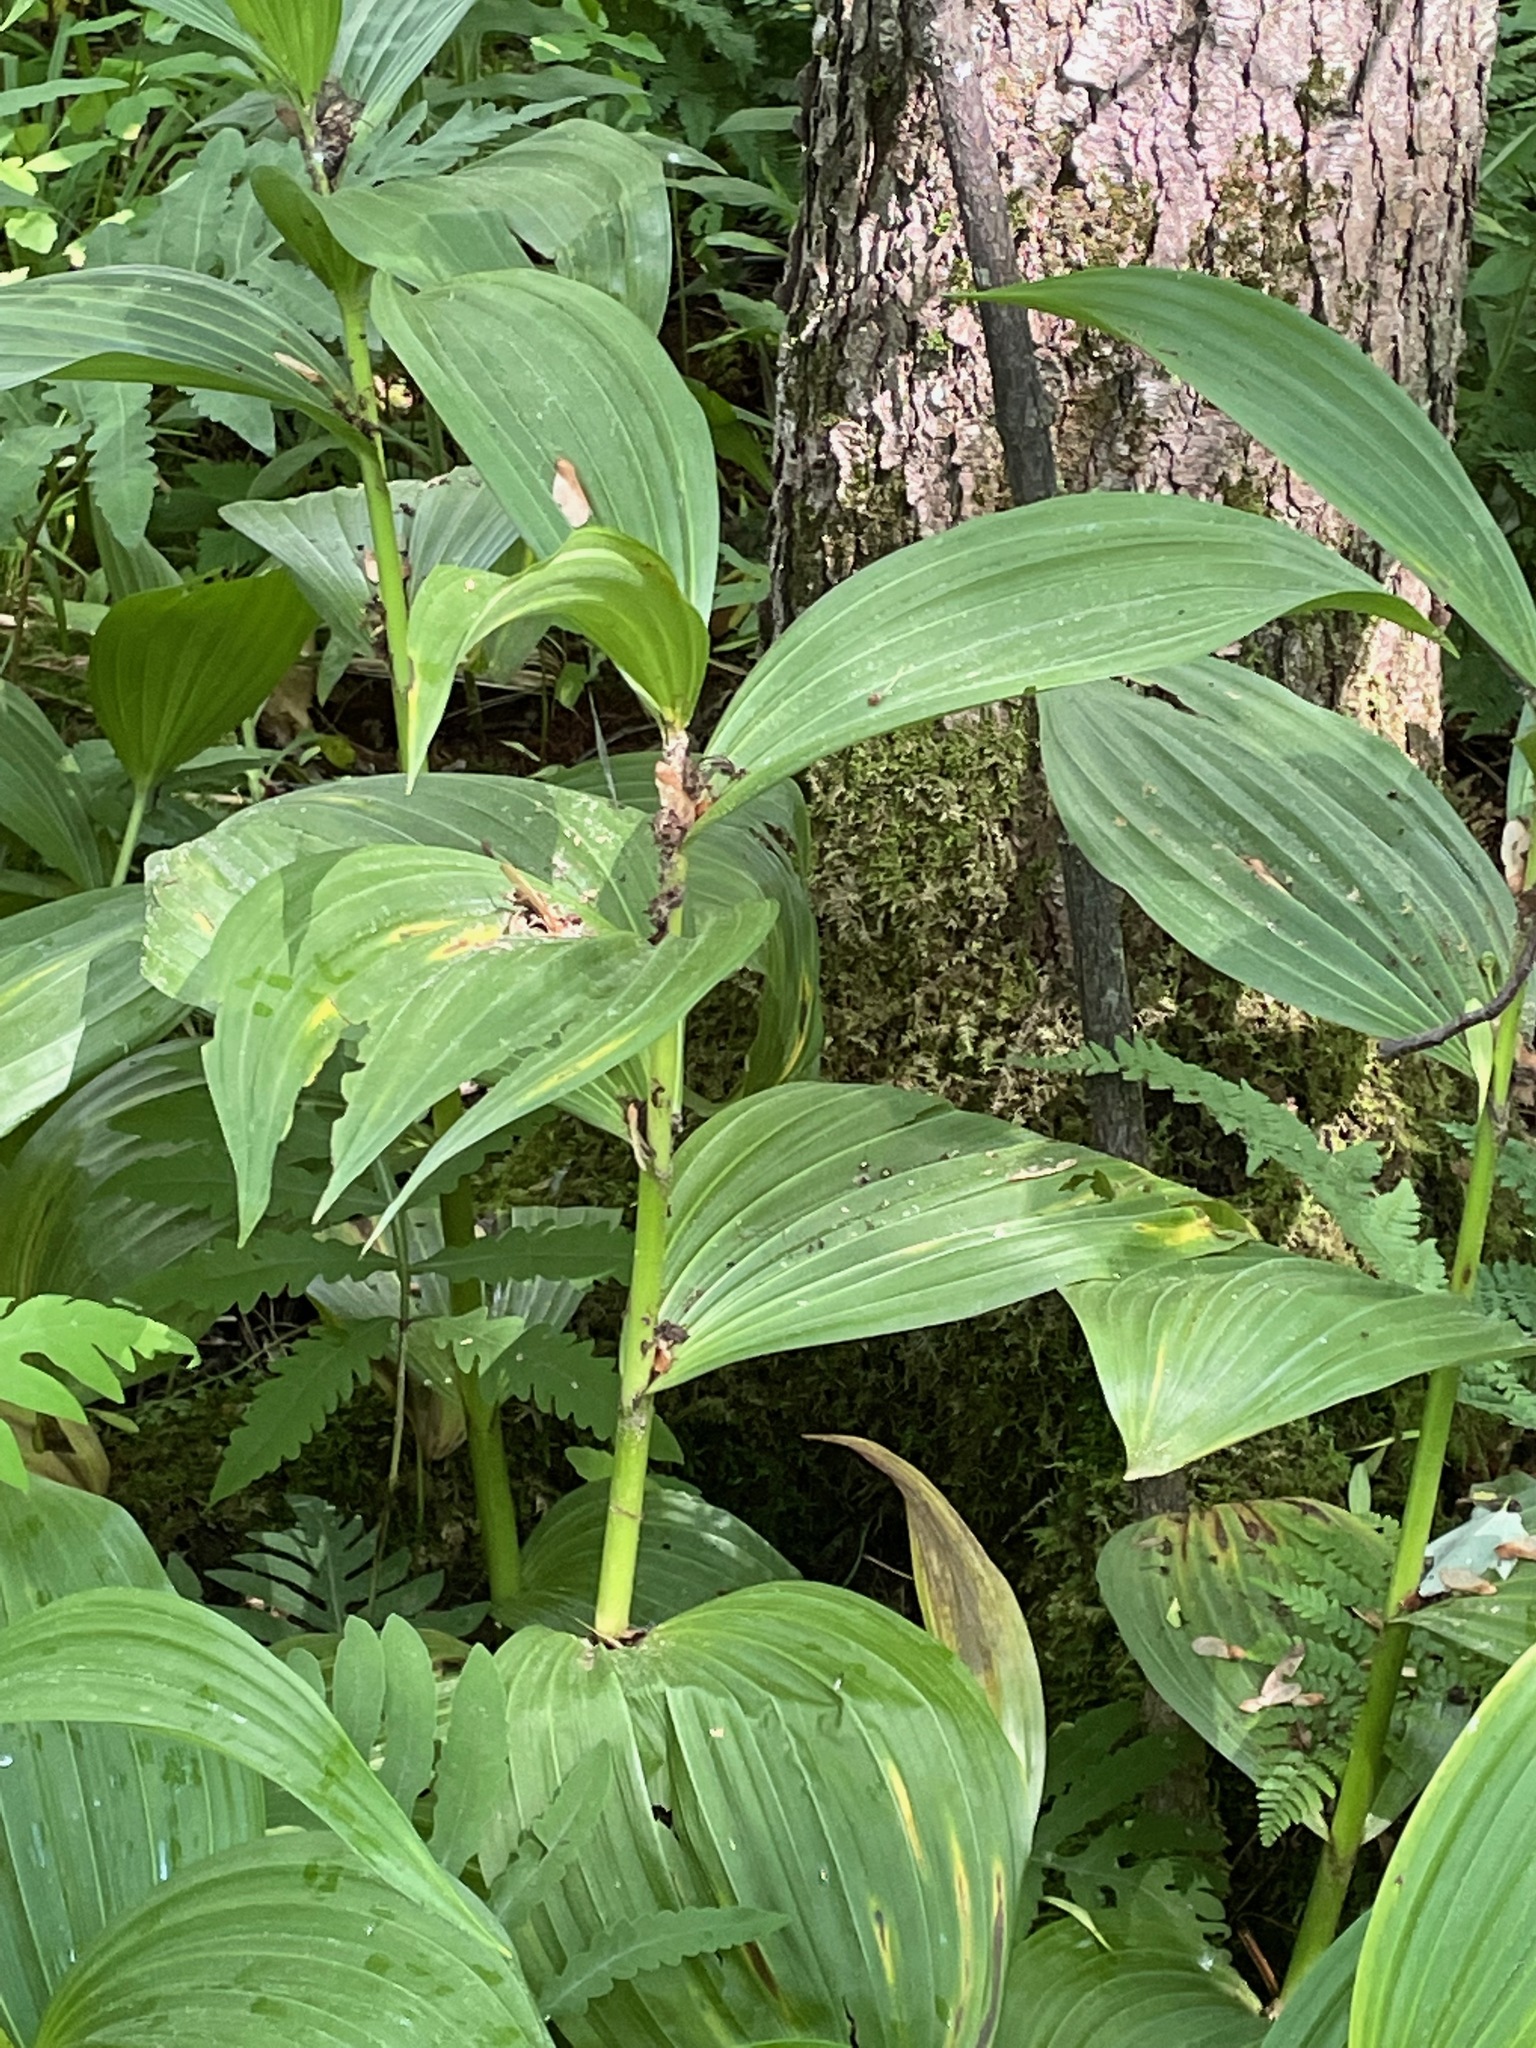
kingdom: Plantae
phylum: Tracheophyta
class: Liliopsida
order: Liliales
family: Melanthiaceae
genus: Veratrum
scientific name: Veratrum viride
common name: American false hellebore
